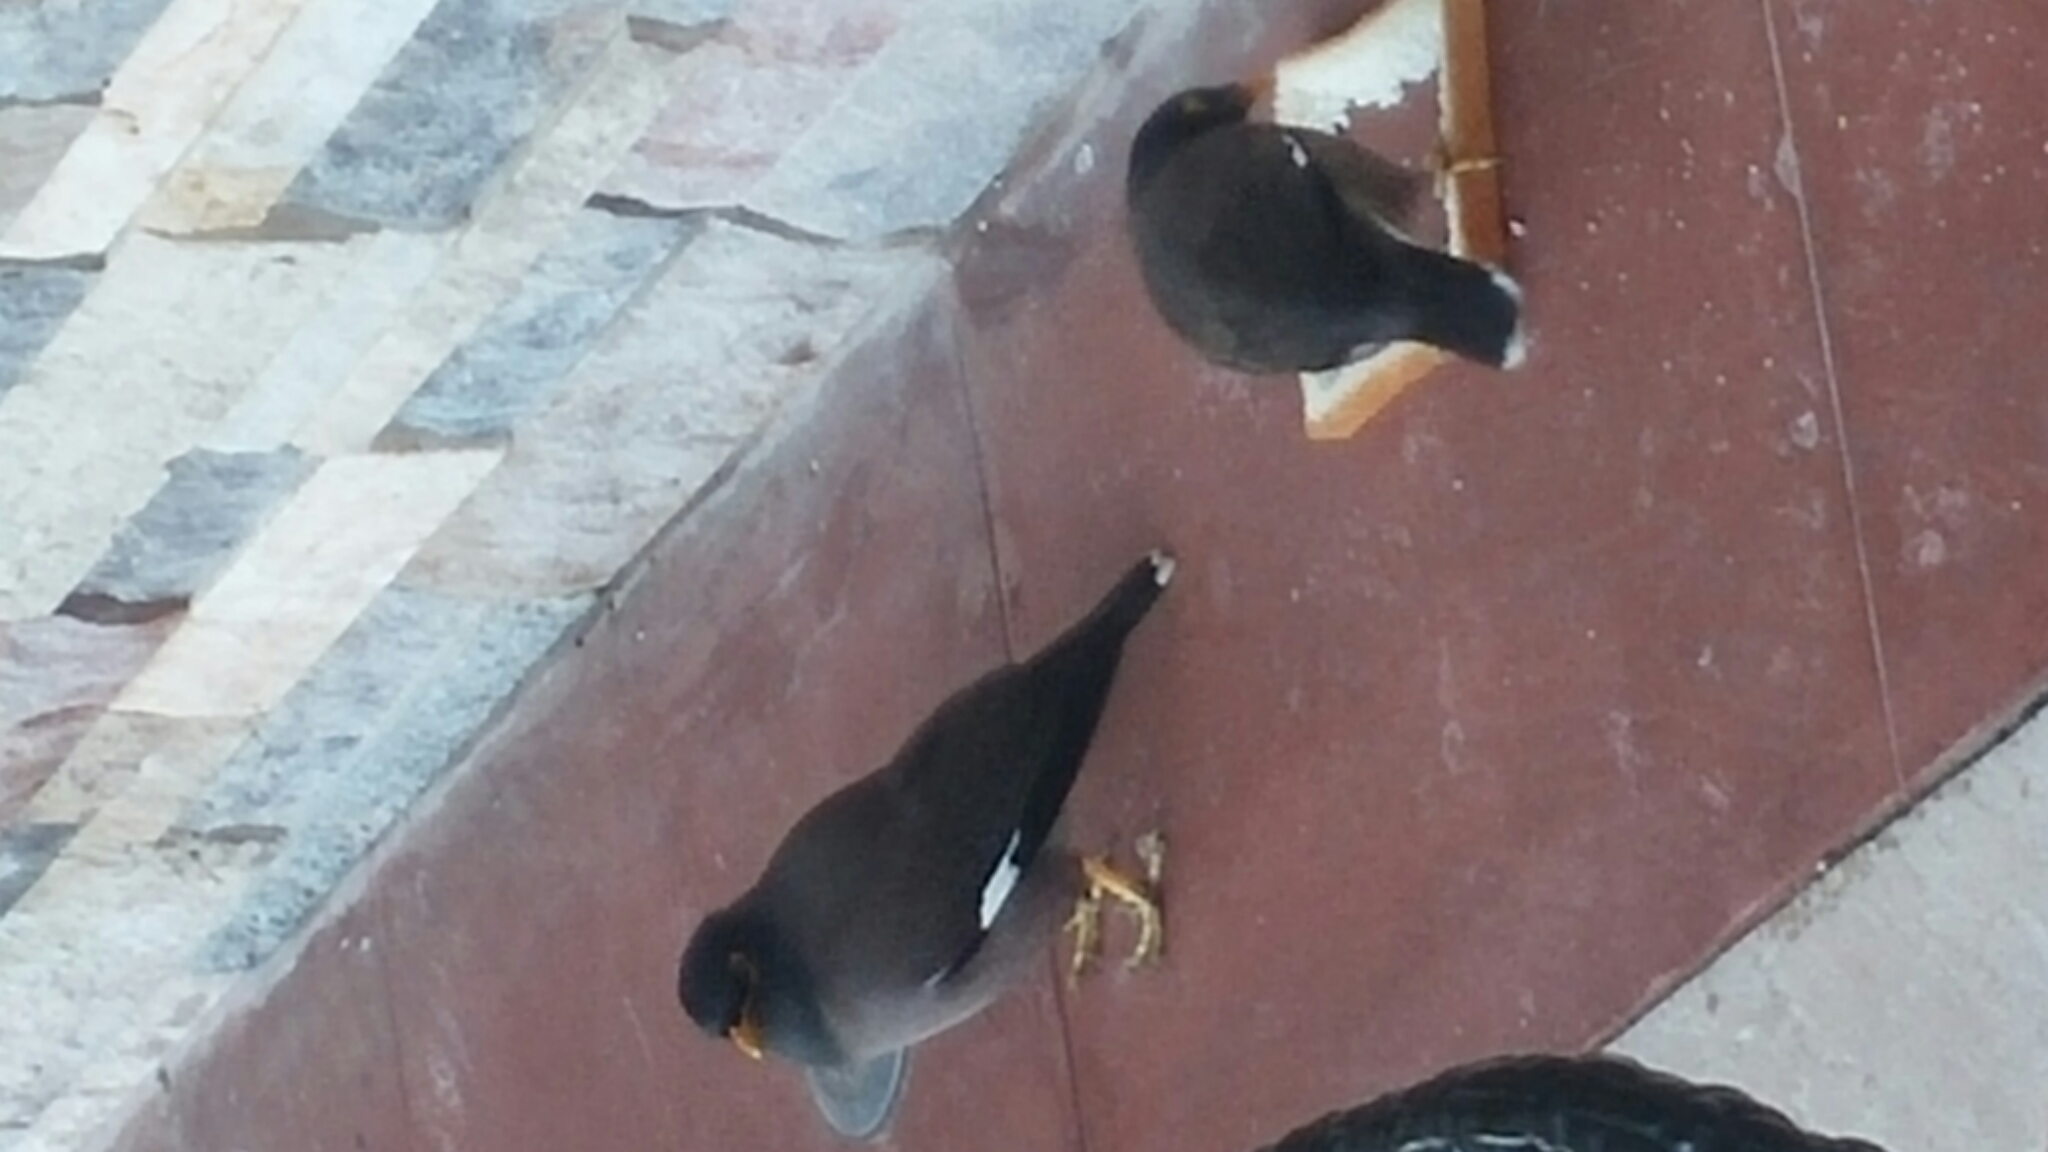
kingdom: Animalia
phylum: Chordata
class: Aves
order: Passeriformes
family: Sturnidae
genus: Acridotheres
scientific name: Acridotheres tristis
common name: Common myna
